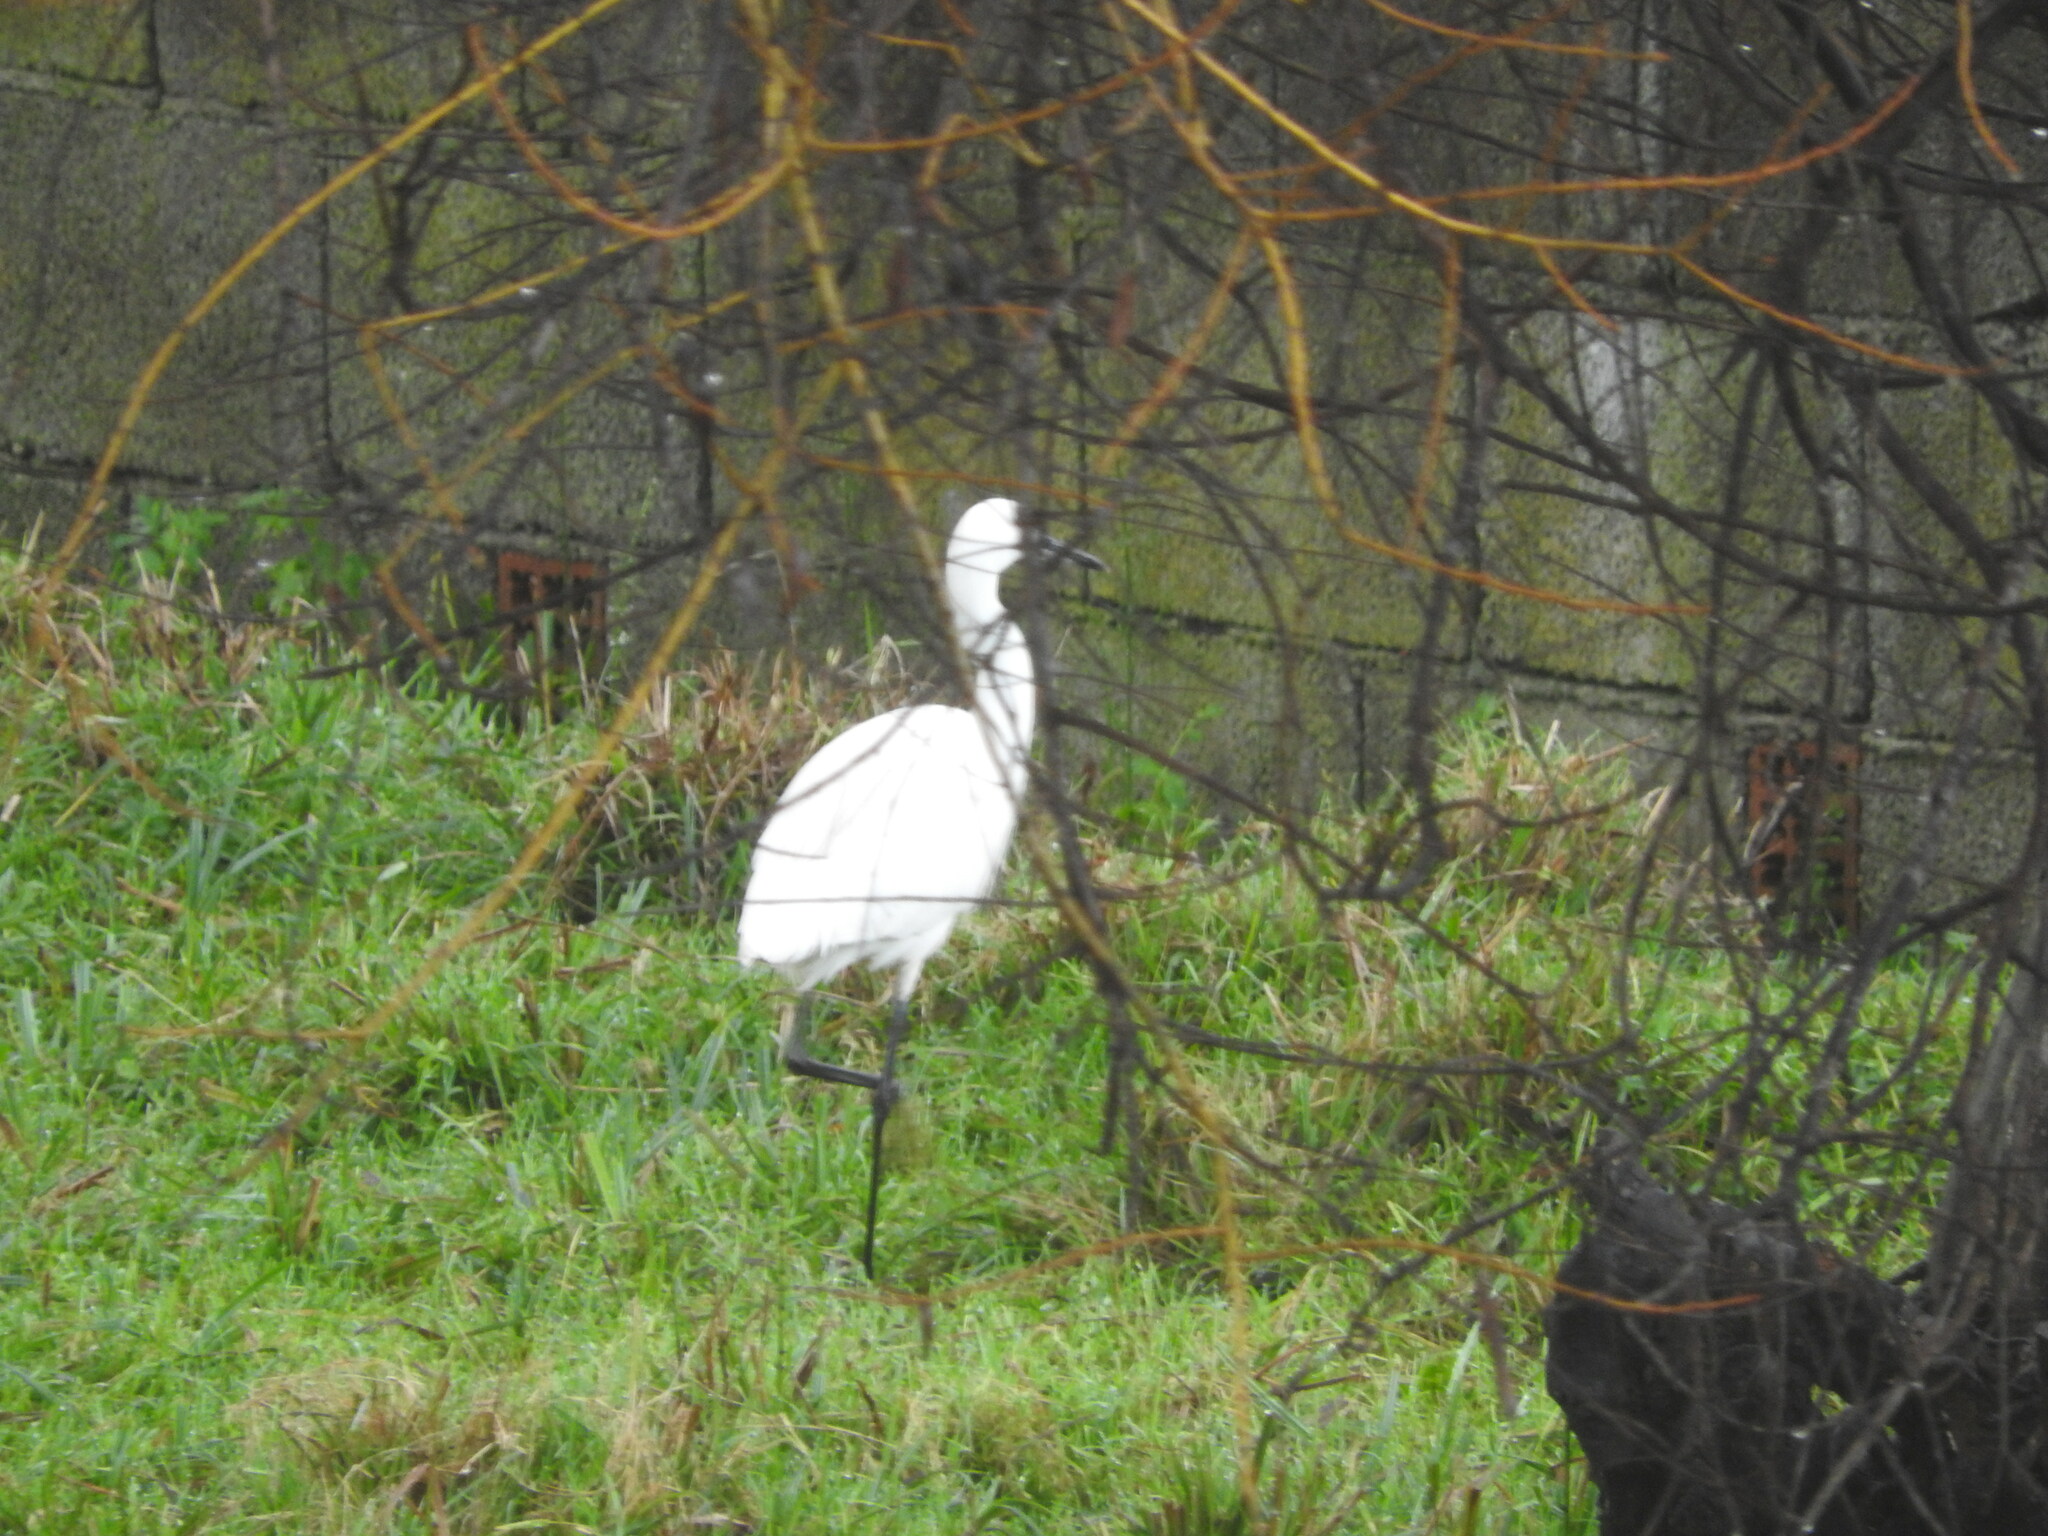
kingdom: Animalia
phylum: Chordata
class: Aves
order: Pelecaniformes
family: Ardeidae
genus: Egretta
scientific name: Egretta garzetta
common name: Little egret
